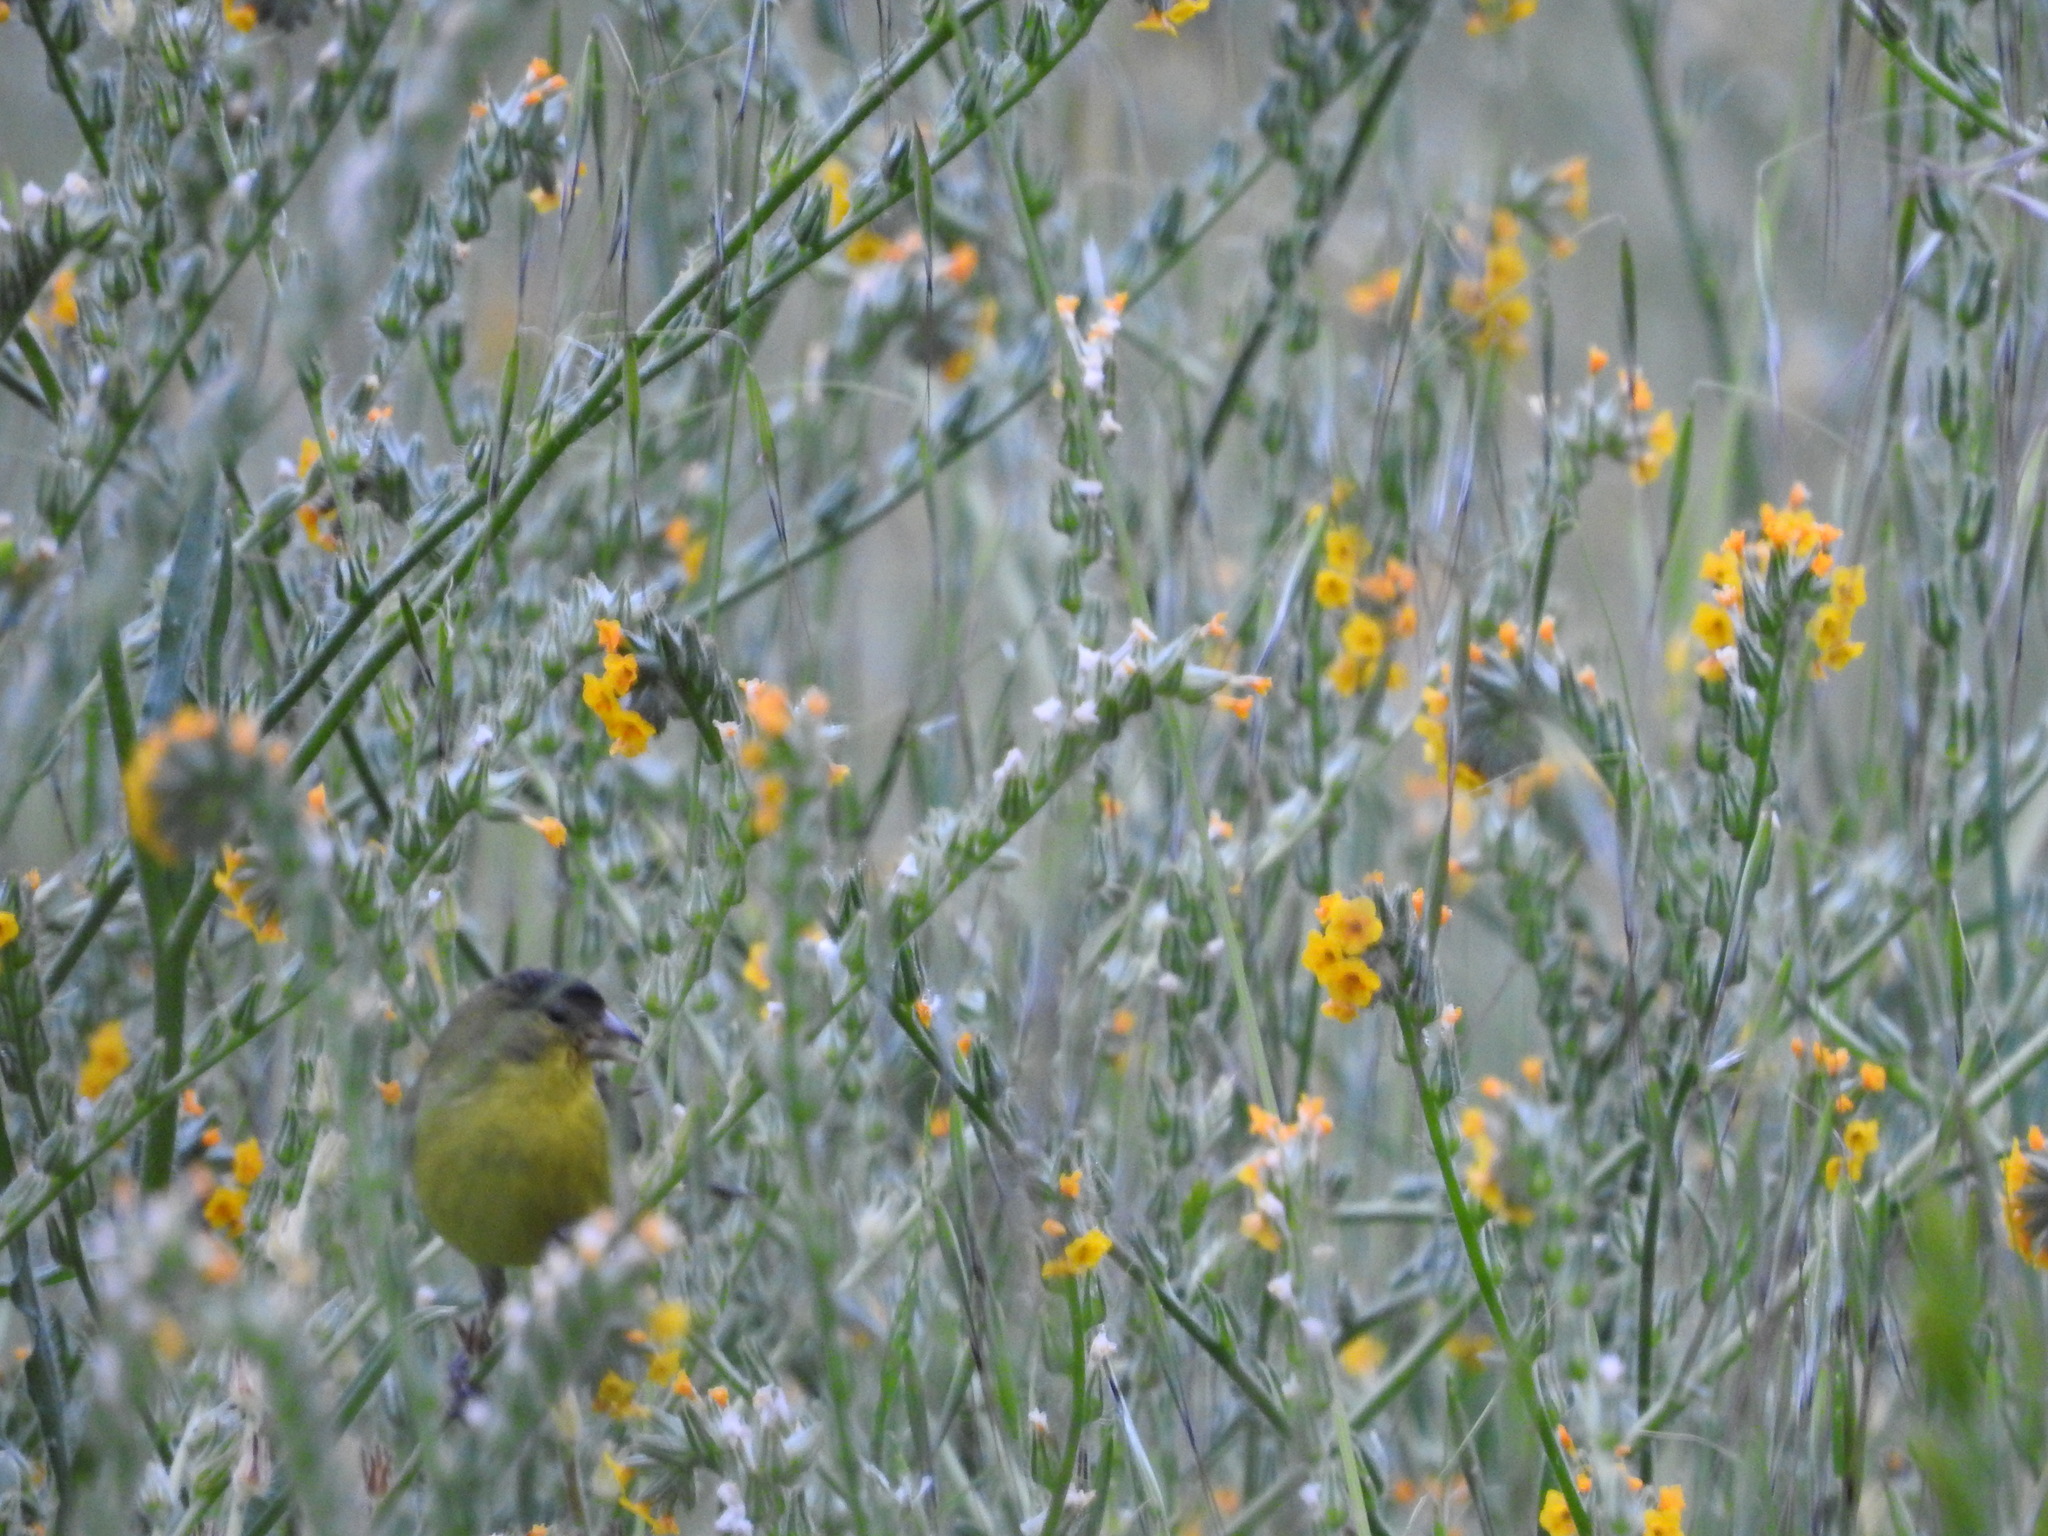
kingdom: Animalia
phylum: Chordata
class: Aves
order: Passeriformes
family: Fringillidae
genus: Spinus
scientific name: Spinus psaltria
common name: Lesser goldfinch
